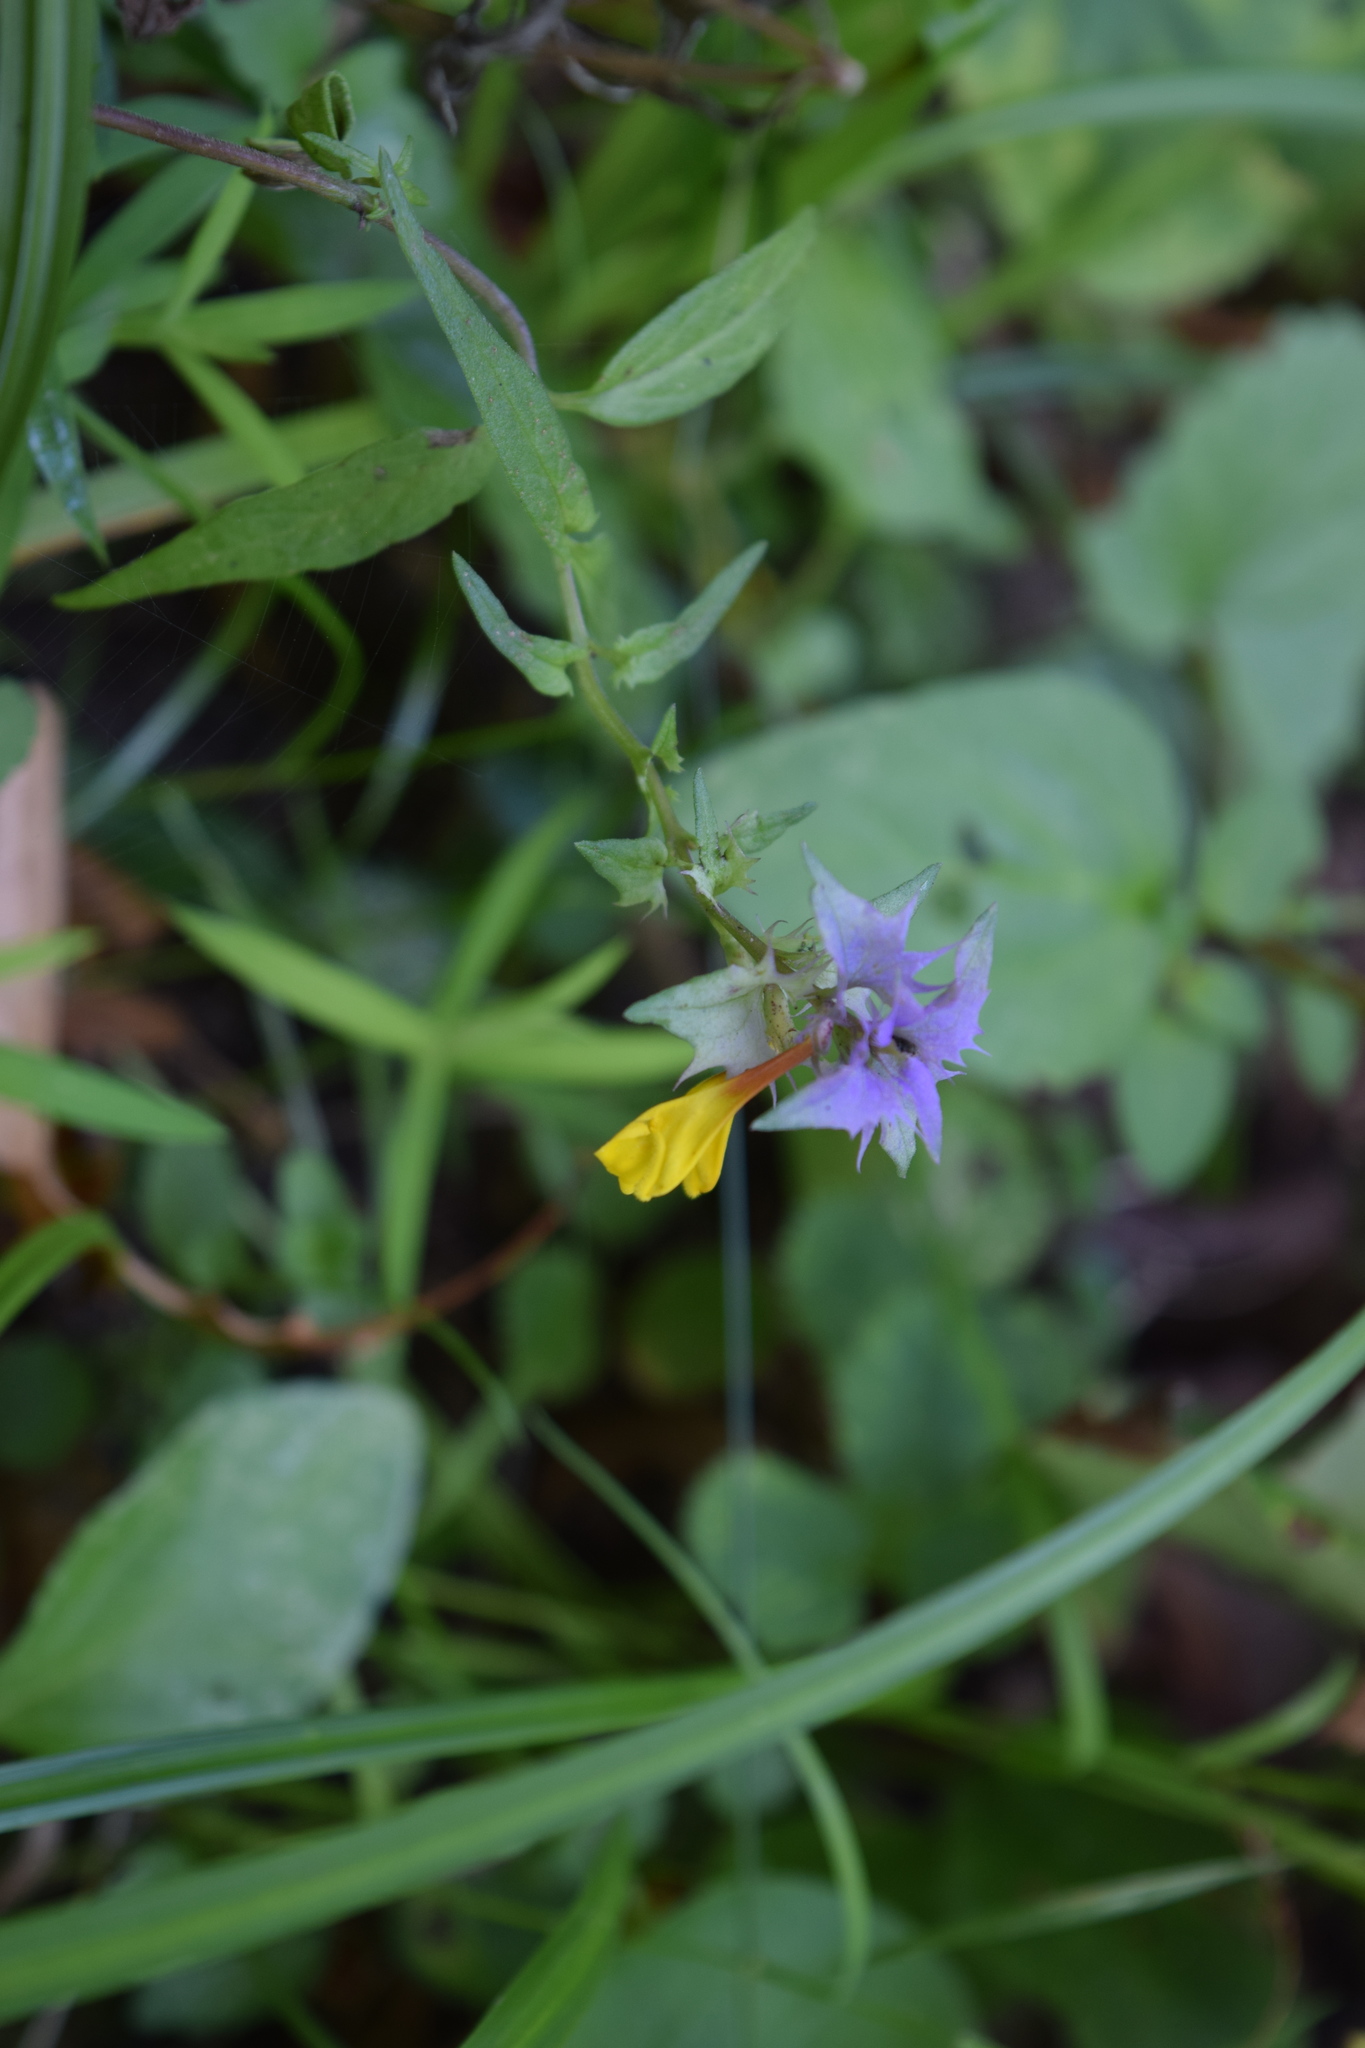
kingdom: Plantae
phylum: Tracheophyta
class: Magnoliopsida
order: Lamiales
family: Orobanchaceae
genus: Melampyrum
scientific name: Melampyrum nemorosum
